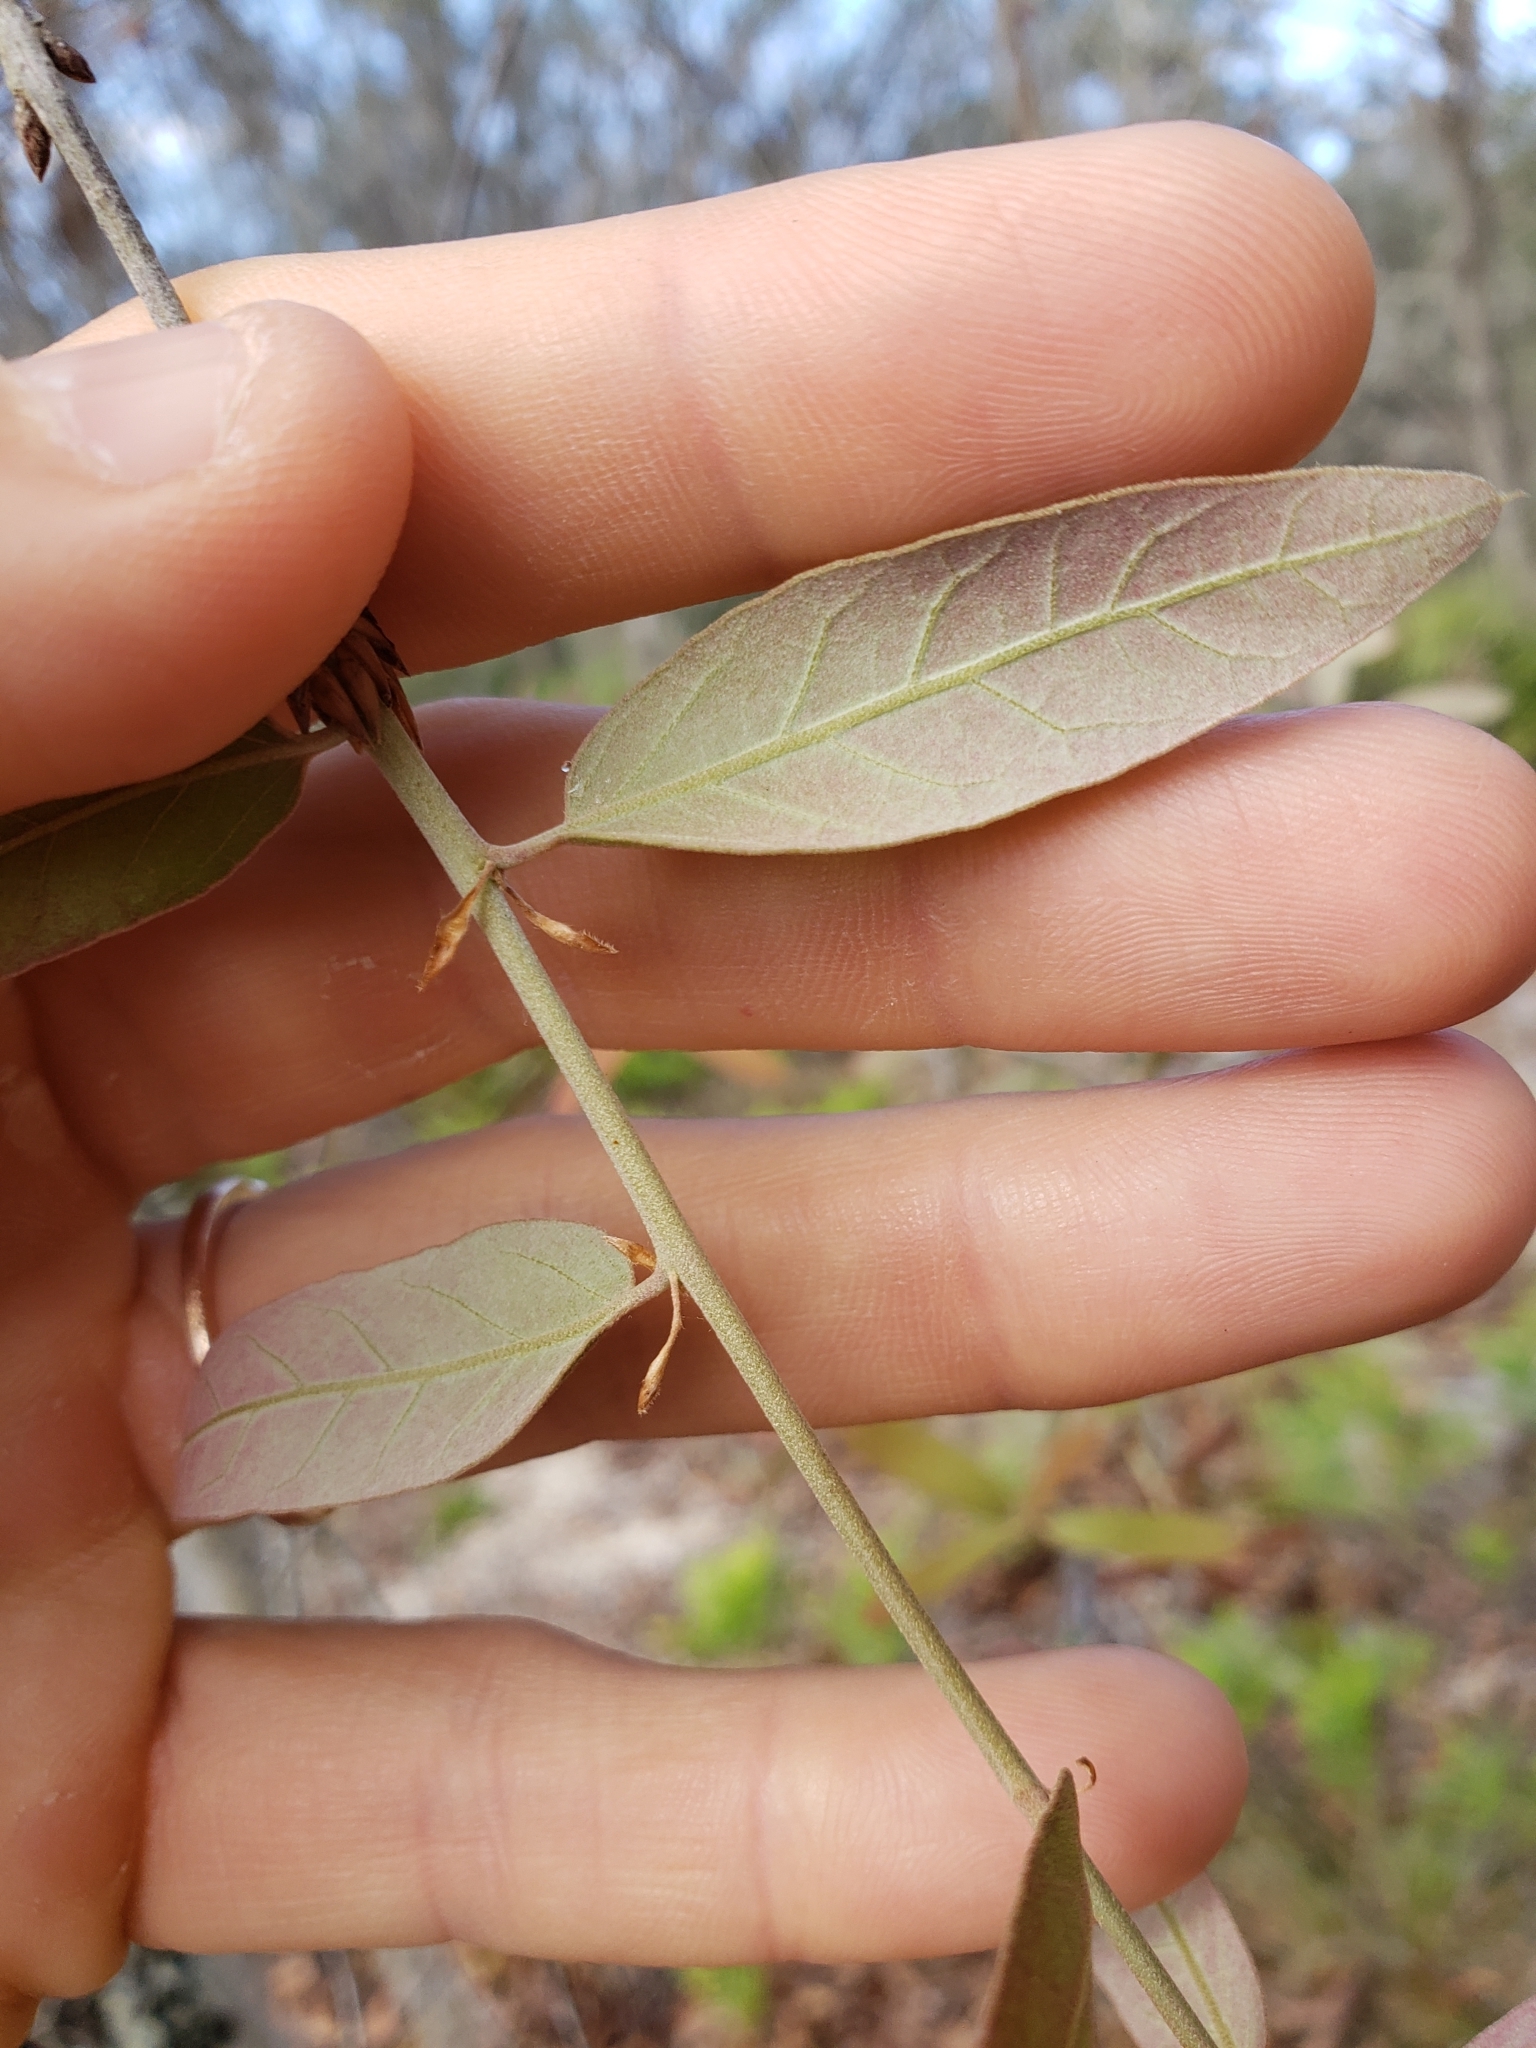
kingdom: Plantae
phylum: Tracheophyta
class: Magnoliopsida
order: Fagales
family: Fagaceae
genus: Quercus
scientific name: Quercus incana
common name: Bluejack oak
